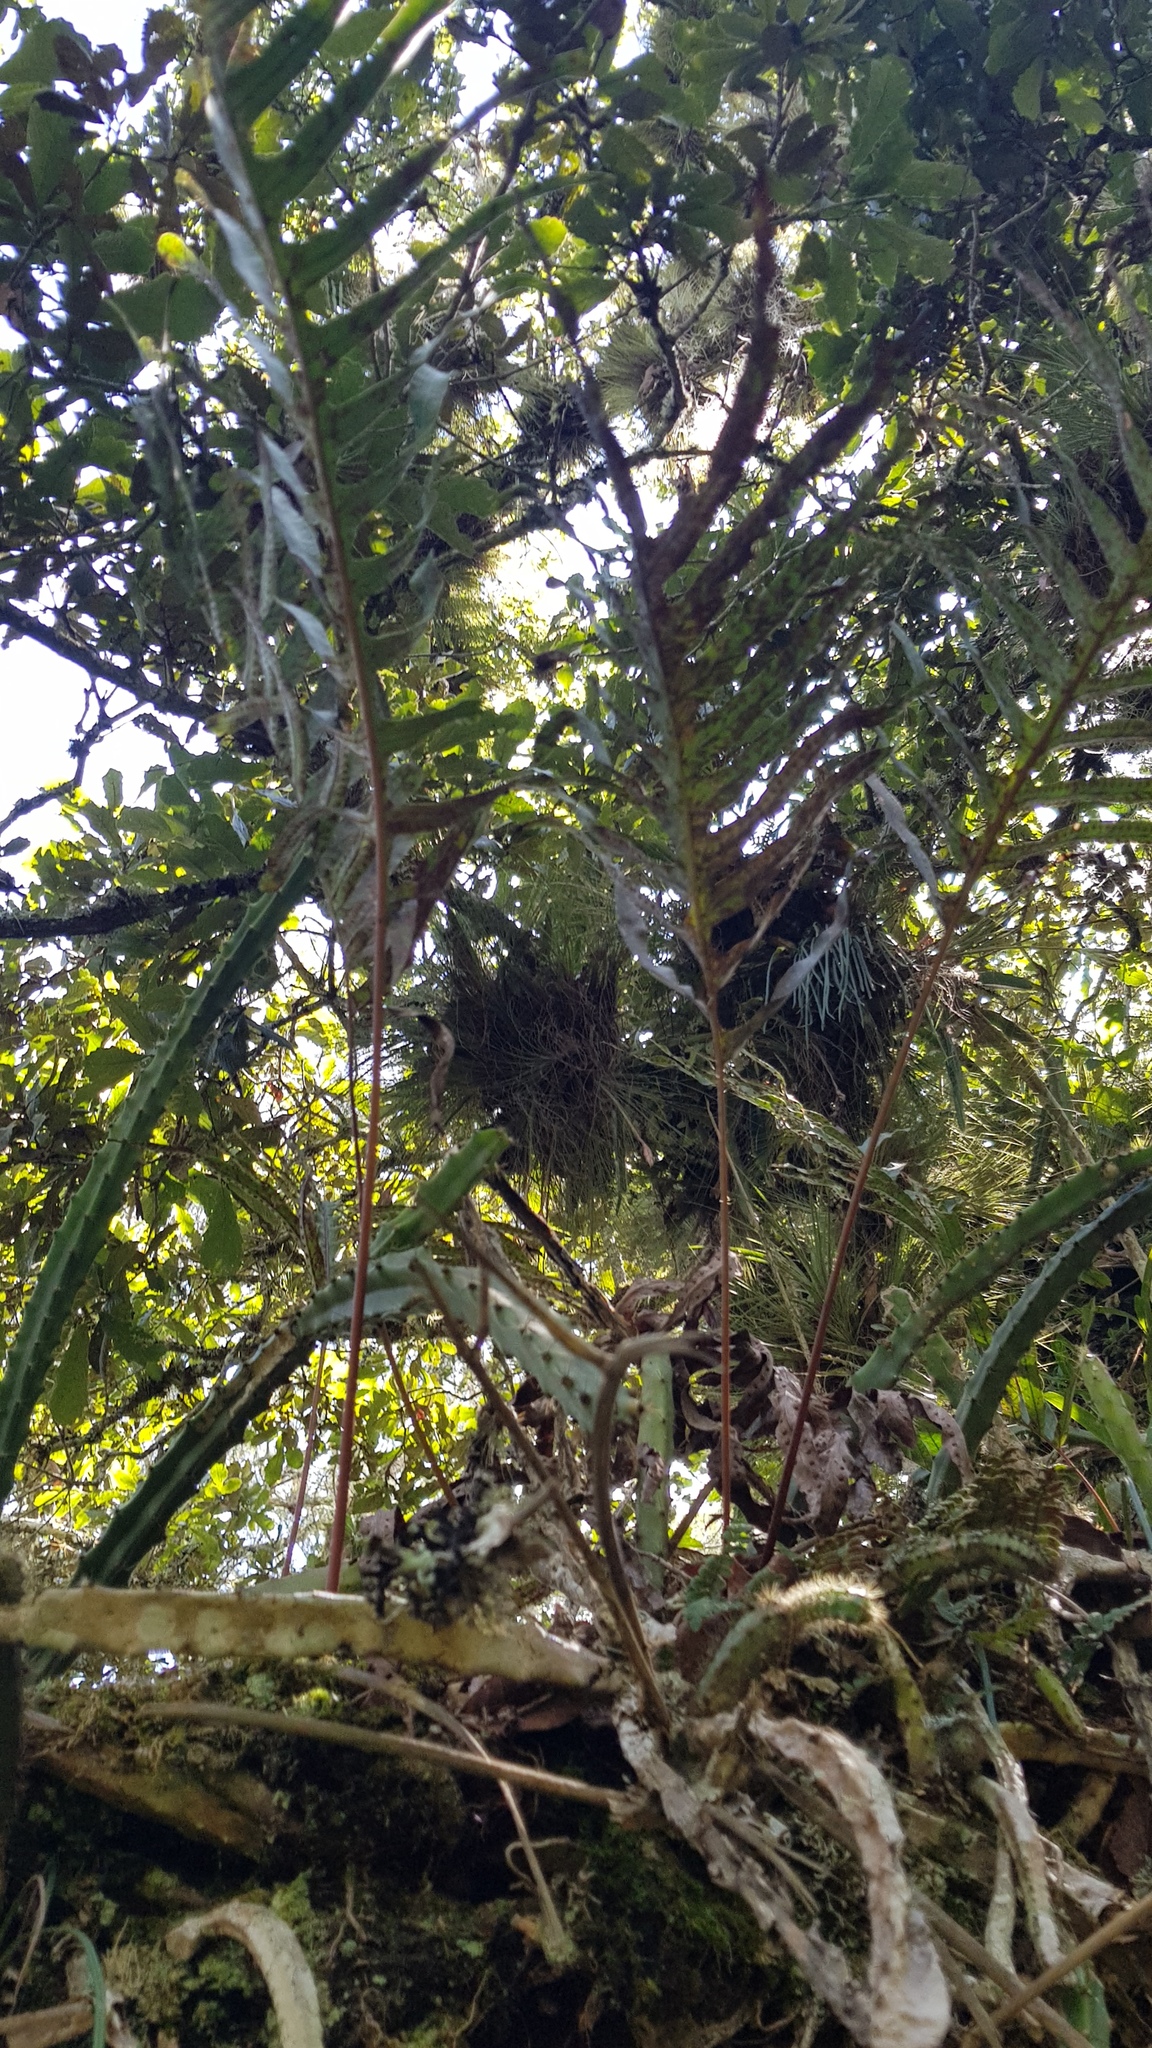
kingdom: Plantae
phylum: Tracheophyta
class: Polypodiopsida
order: Polypodiales
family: Polypodiaceae
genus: Phlebodium
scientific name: Phlebodium pseudoaureum
